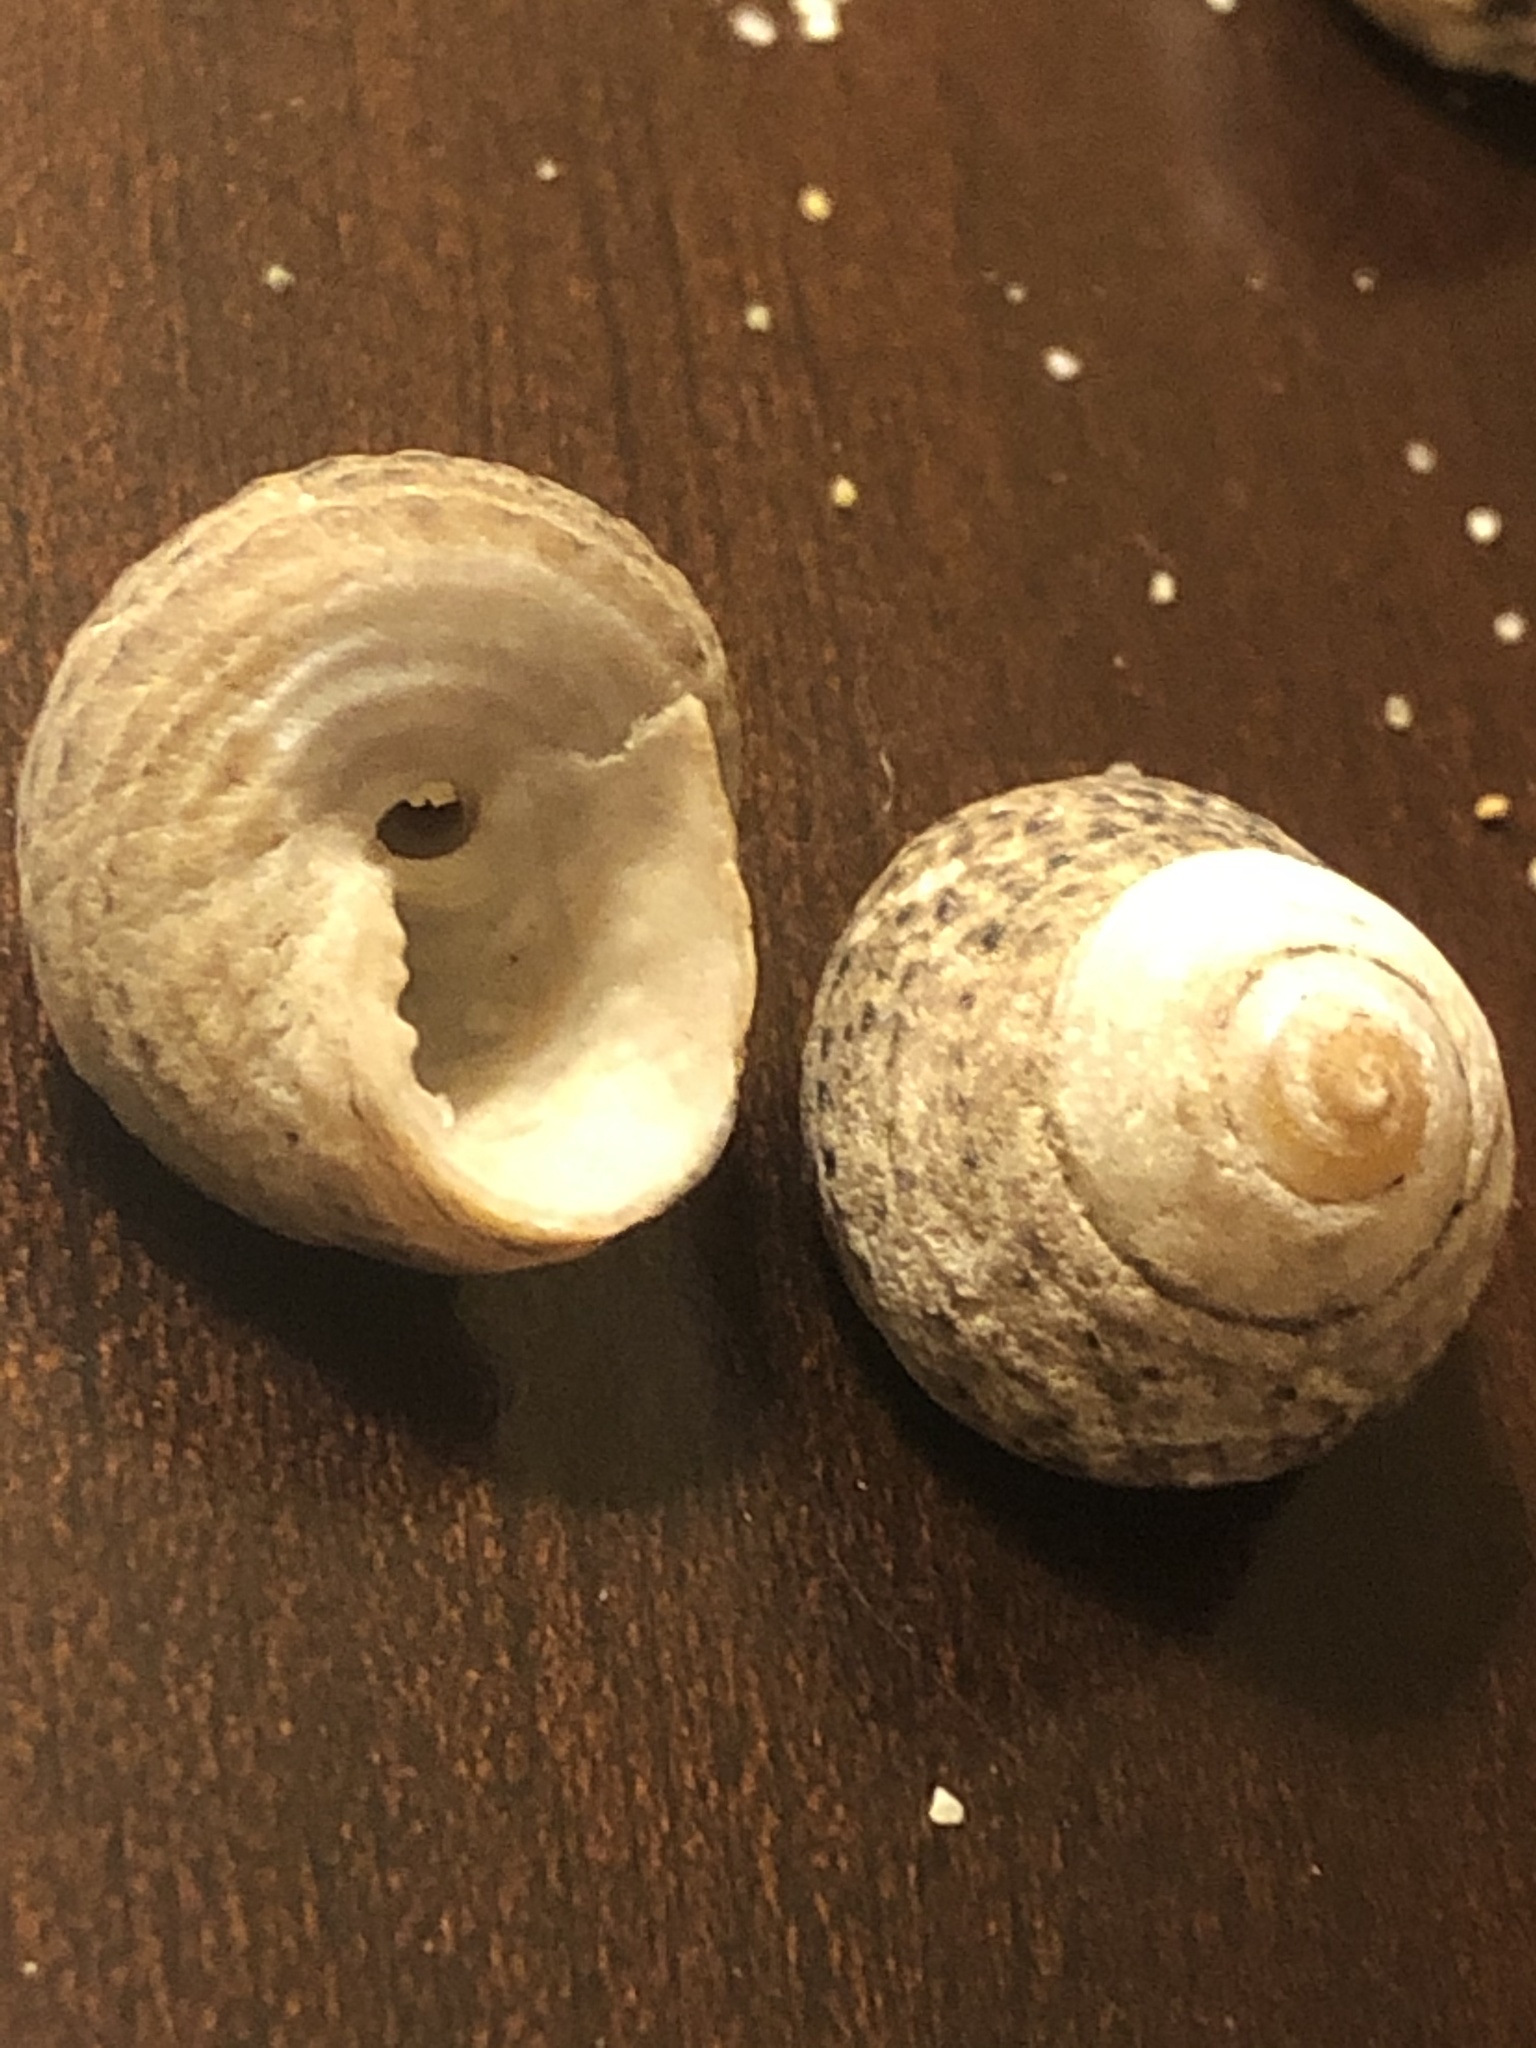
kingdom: Animalia
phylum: Mollusca
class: Gastropoda
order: Trochida
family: Tegulidae
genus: Tegula
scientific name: Tegula eiseni
